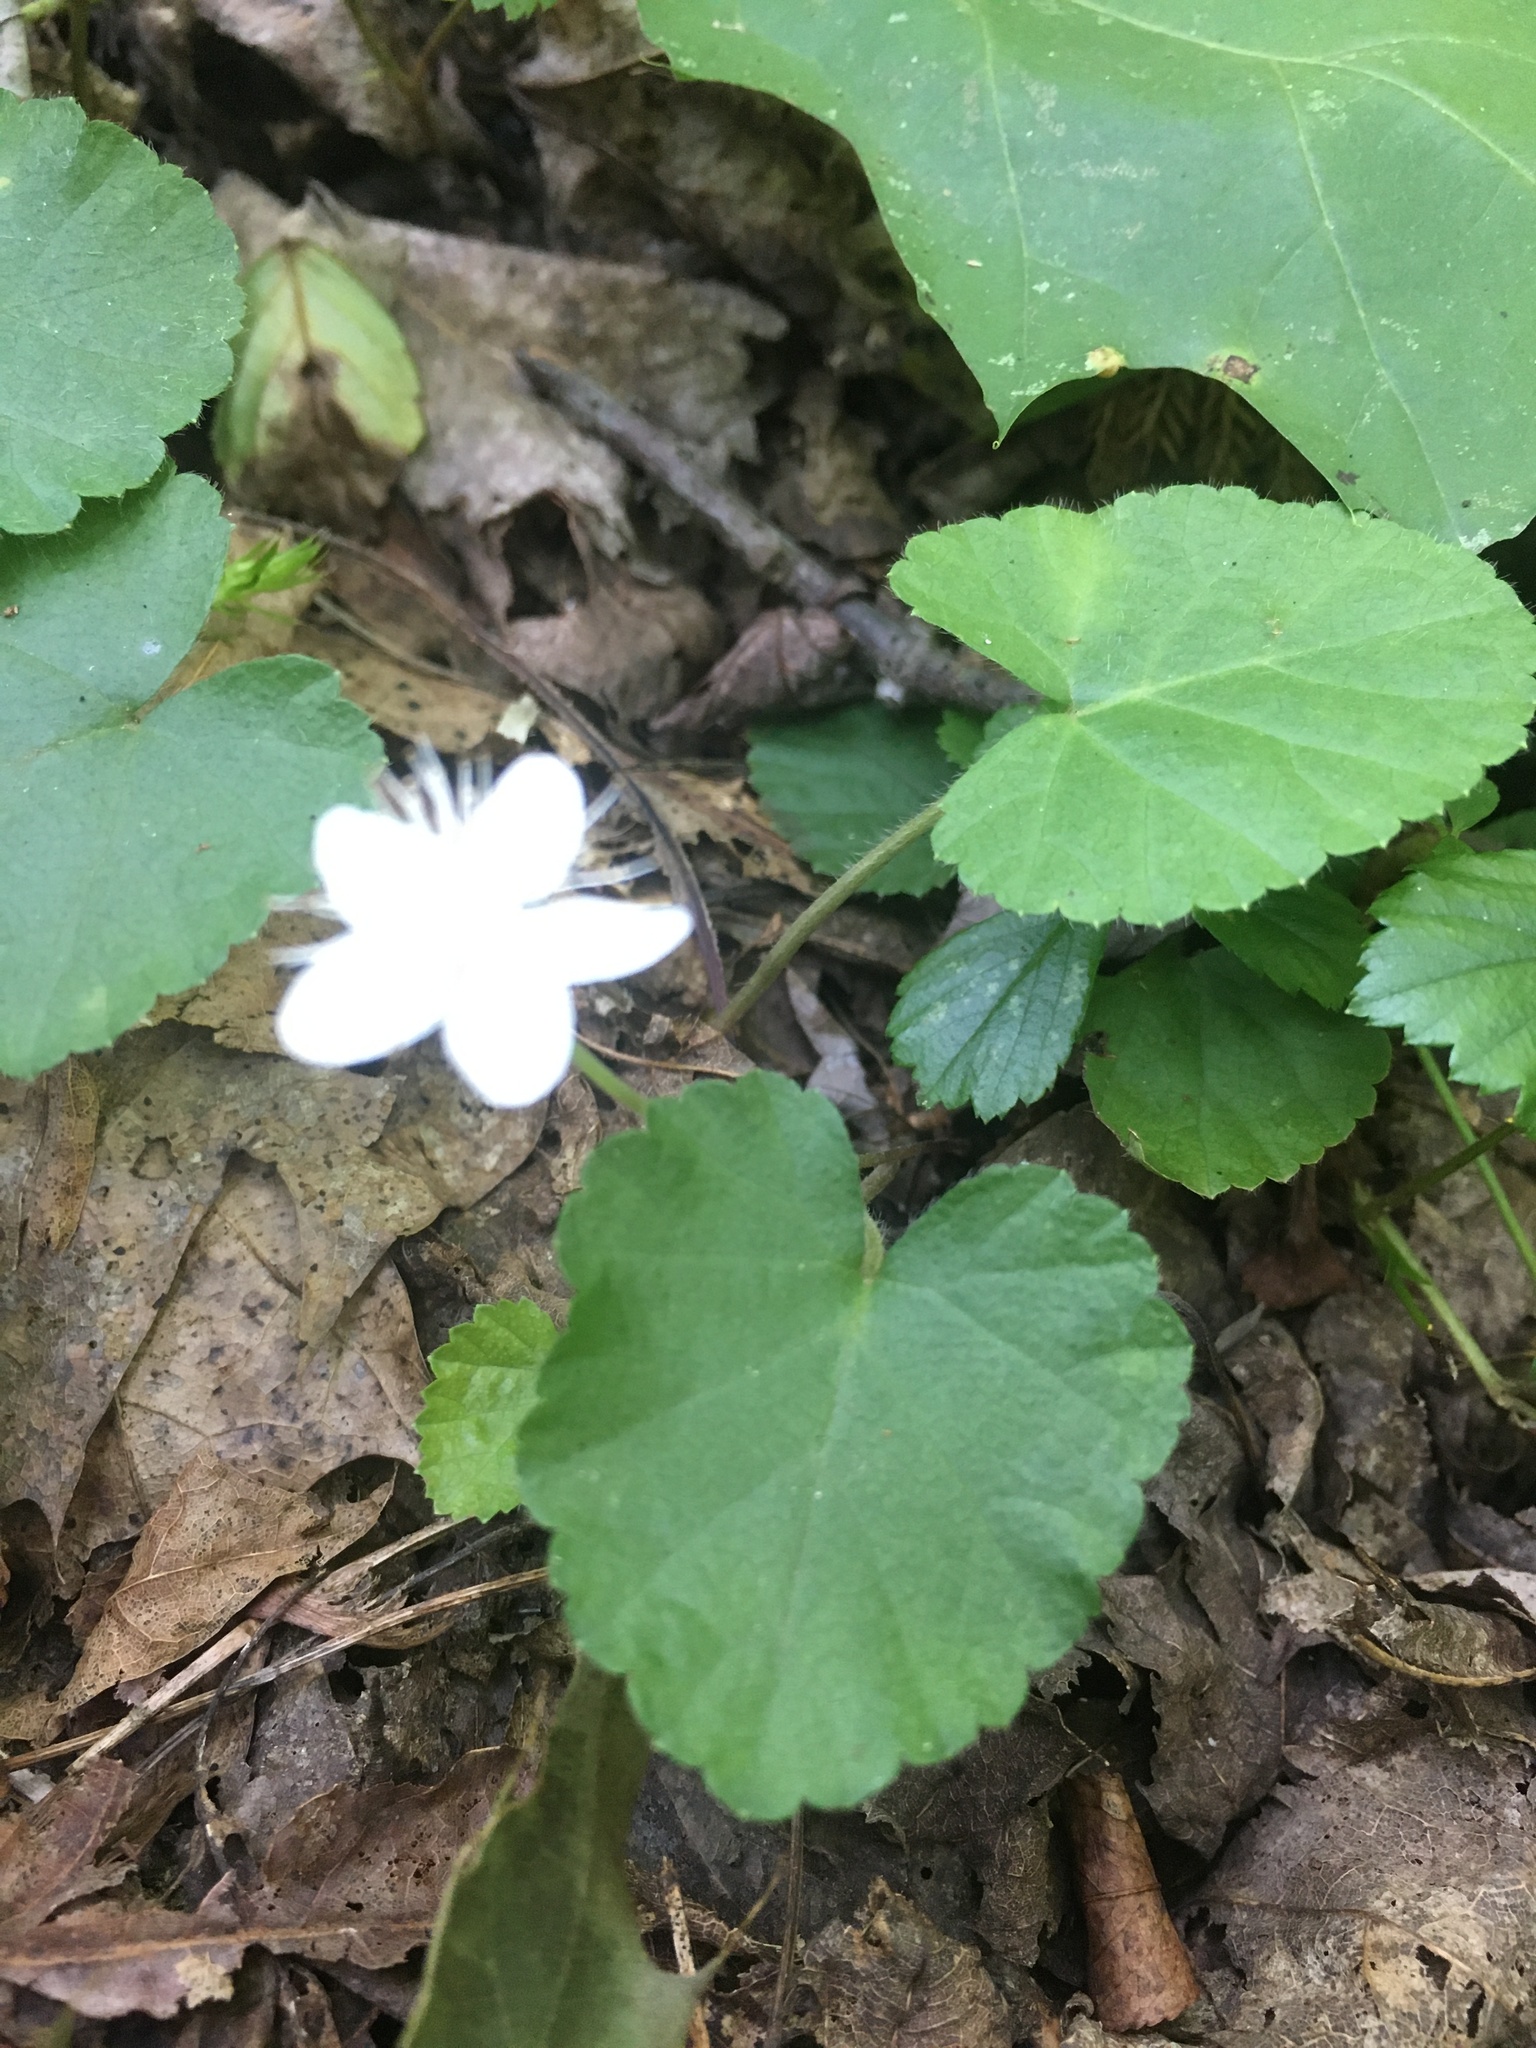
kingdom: Plantae
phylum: Tracheophyta
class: Magnoliopsida
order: Rosales
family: Rosaceae
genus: Dalibarda
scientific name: Dalibarda repens
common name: Dewdrop
